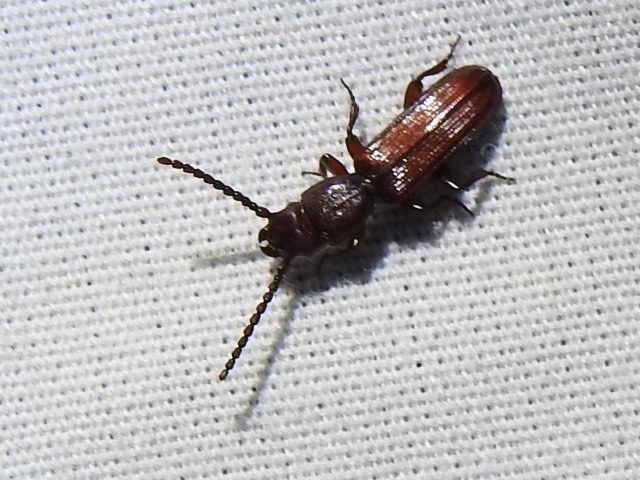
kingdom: Animalia
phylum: Arthropoda
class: Insecta
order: Coleoptera
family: Passandridae
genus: Catogenus
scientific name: Catogenus rufus
